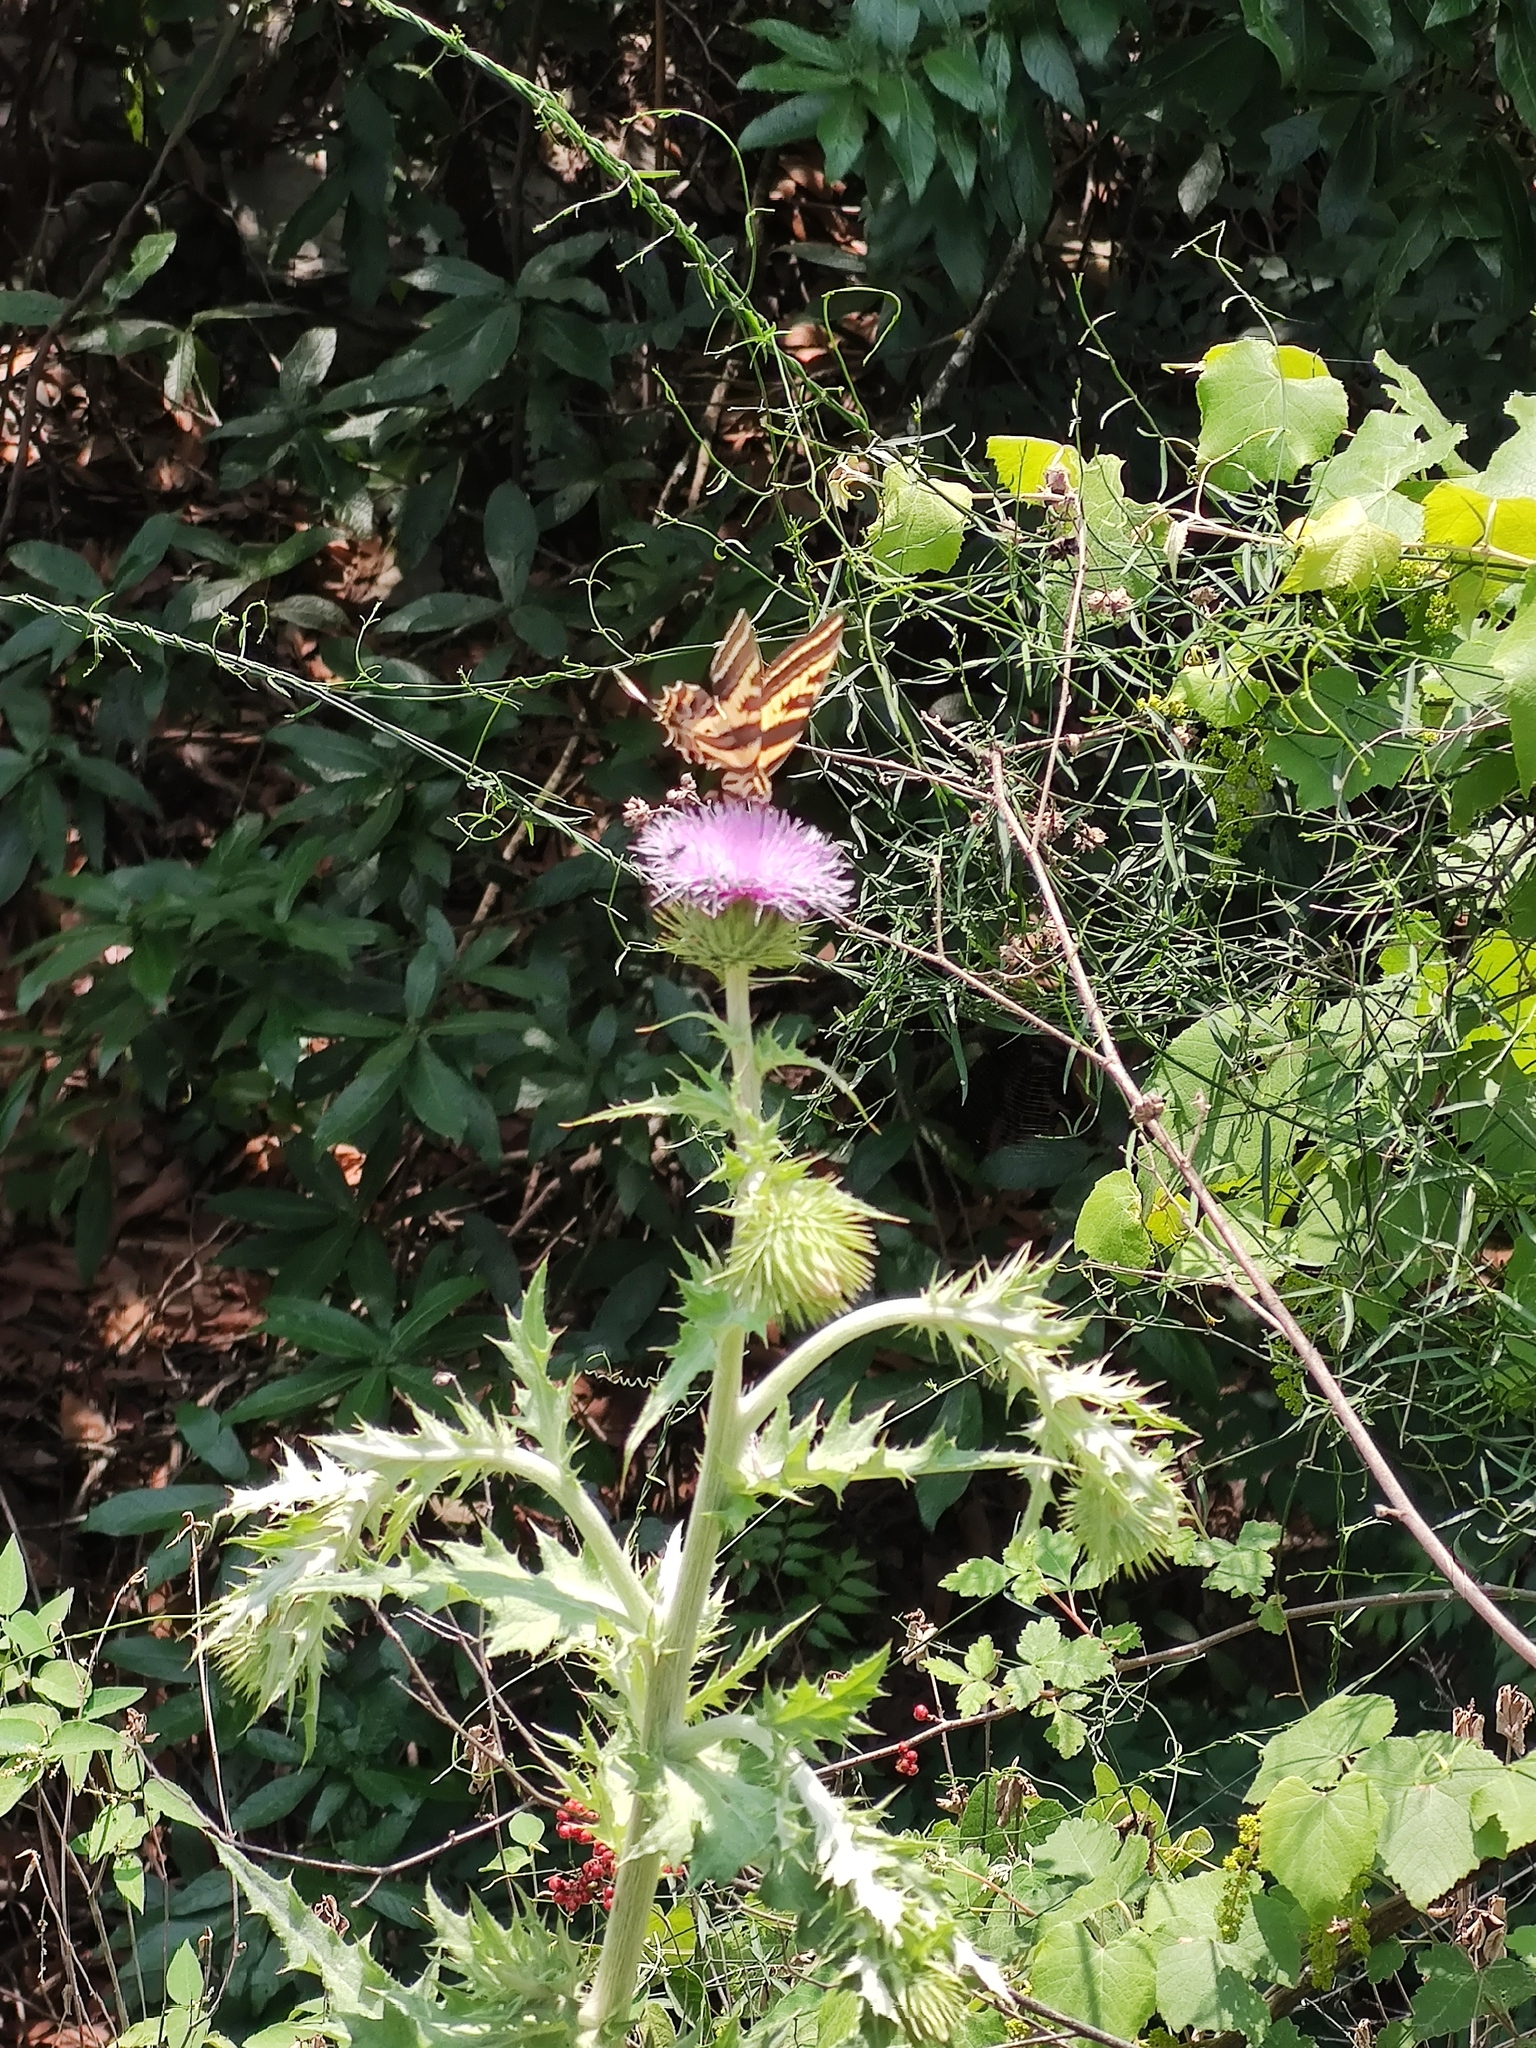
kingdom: Animalia
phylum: Arthropoda
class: Insecta
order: Lepidoptera
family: Papilionidae
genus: Papilio
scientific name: Papilio pilumnus
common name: Three-tailed tiger swallowtail
